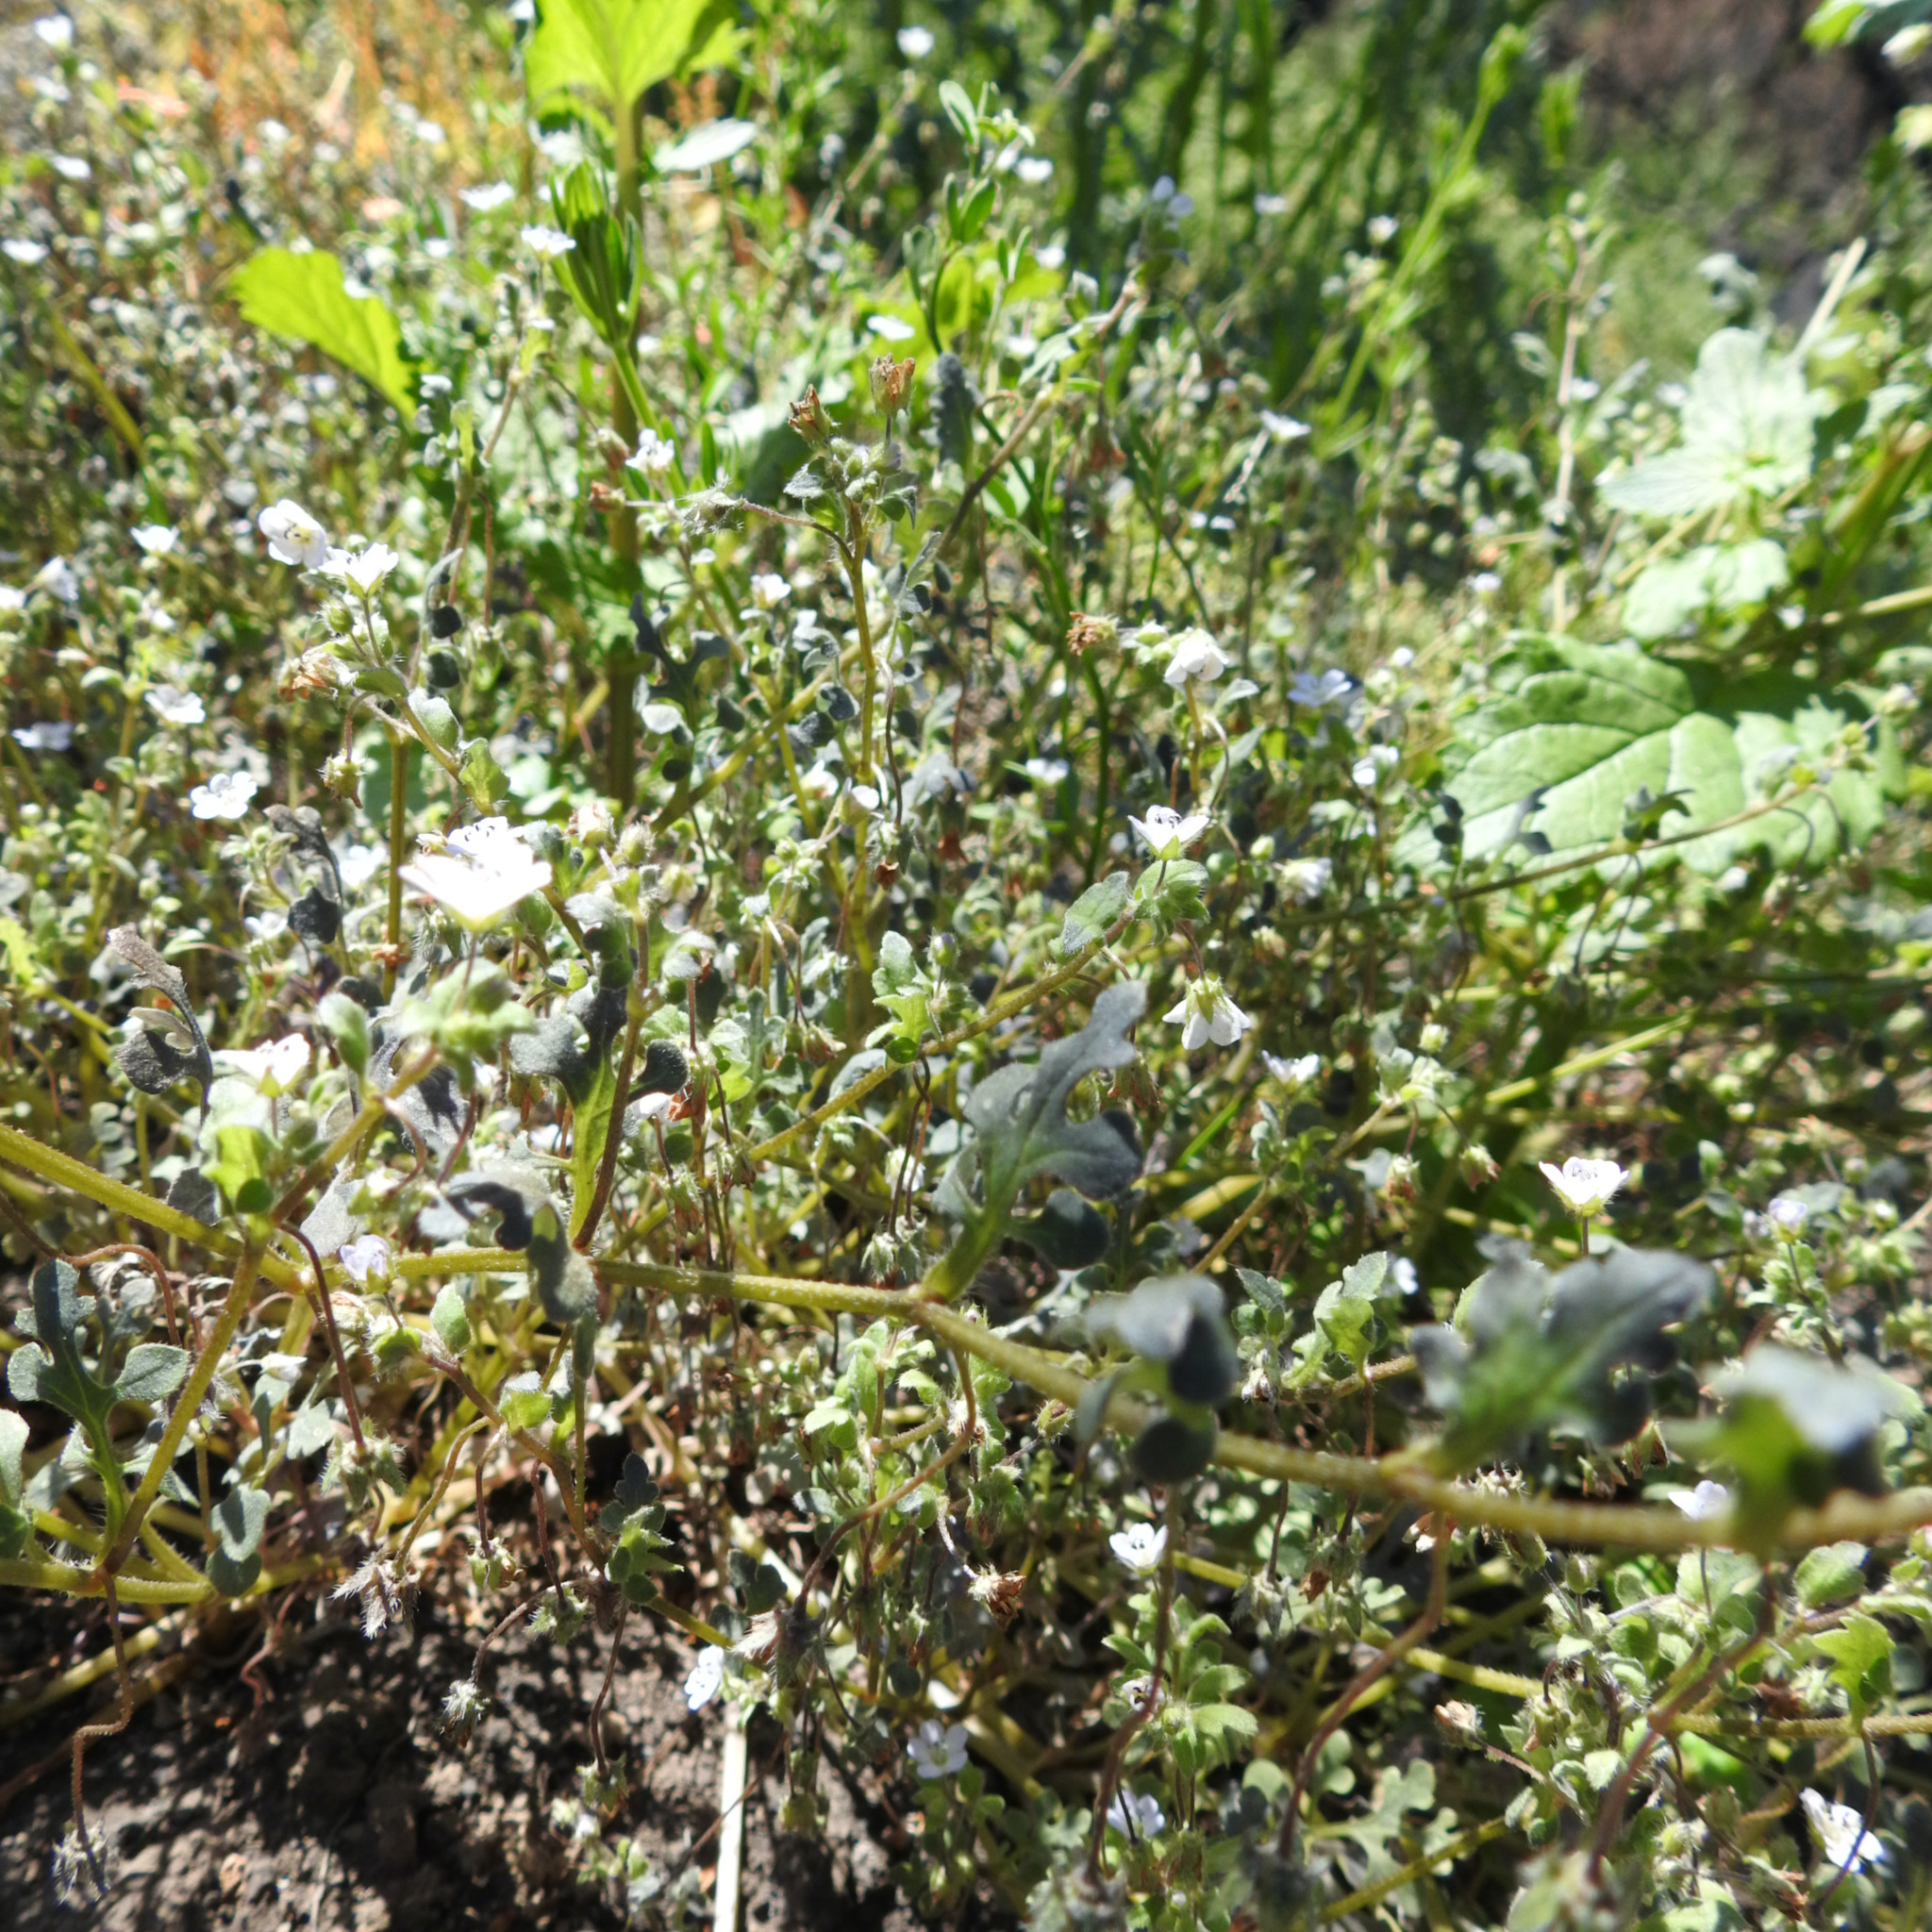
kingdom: Plantae
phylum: Tracheophyta
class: Magnoliopsida
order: Boraginales
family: Hydrophyllaceae
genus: Nemophila
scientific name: Nemophila heterophylla
